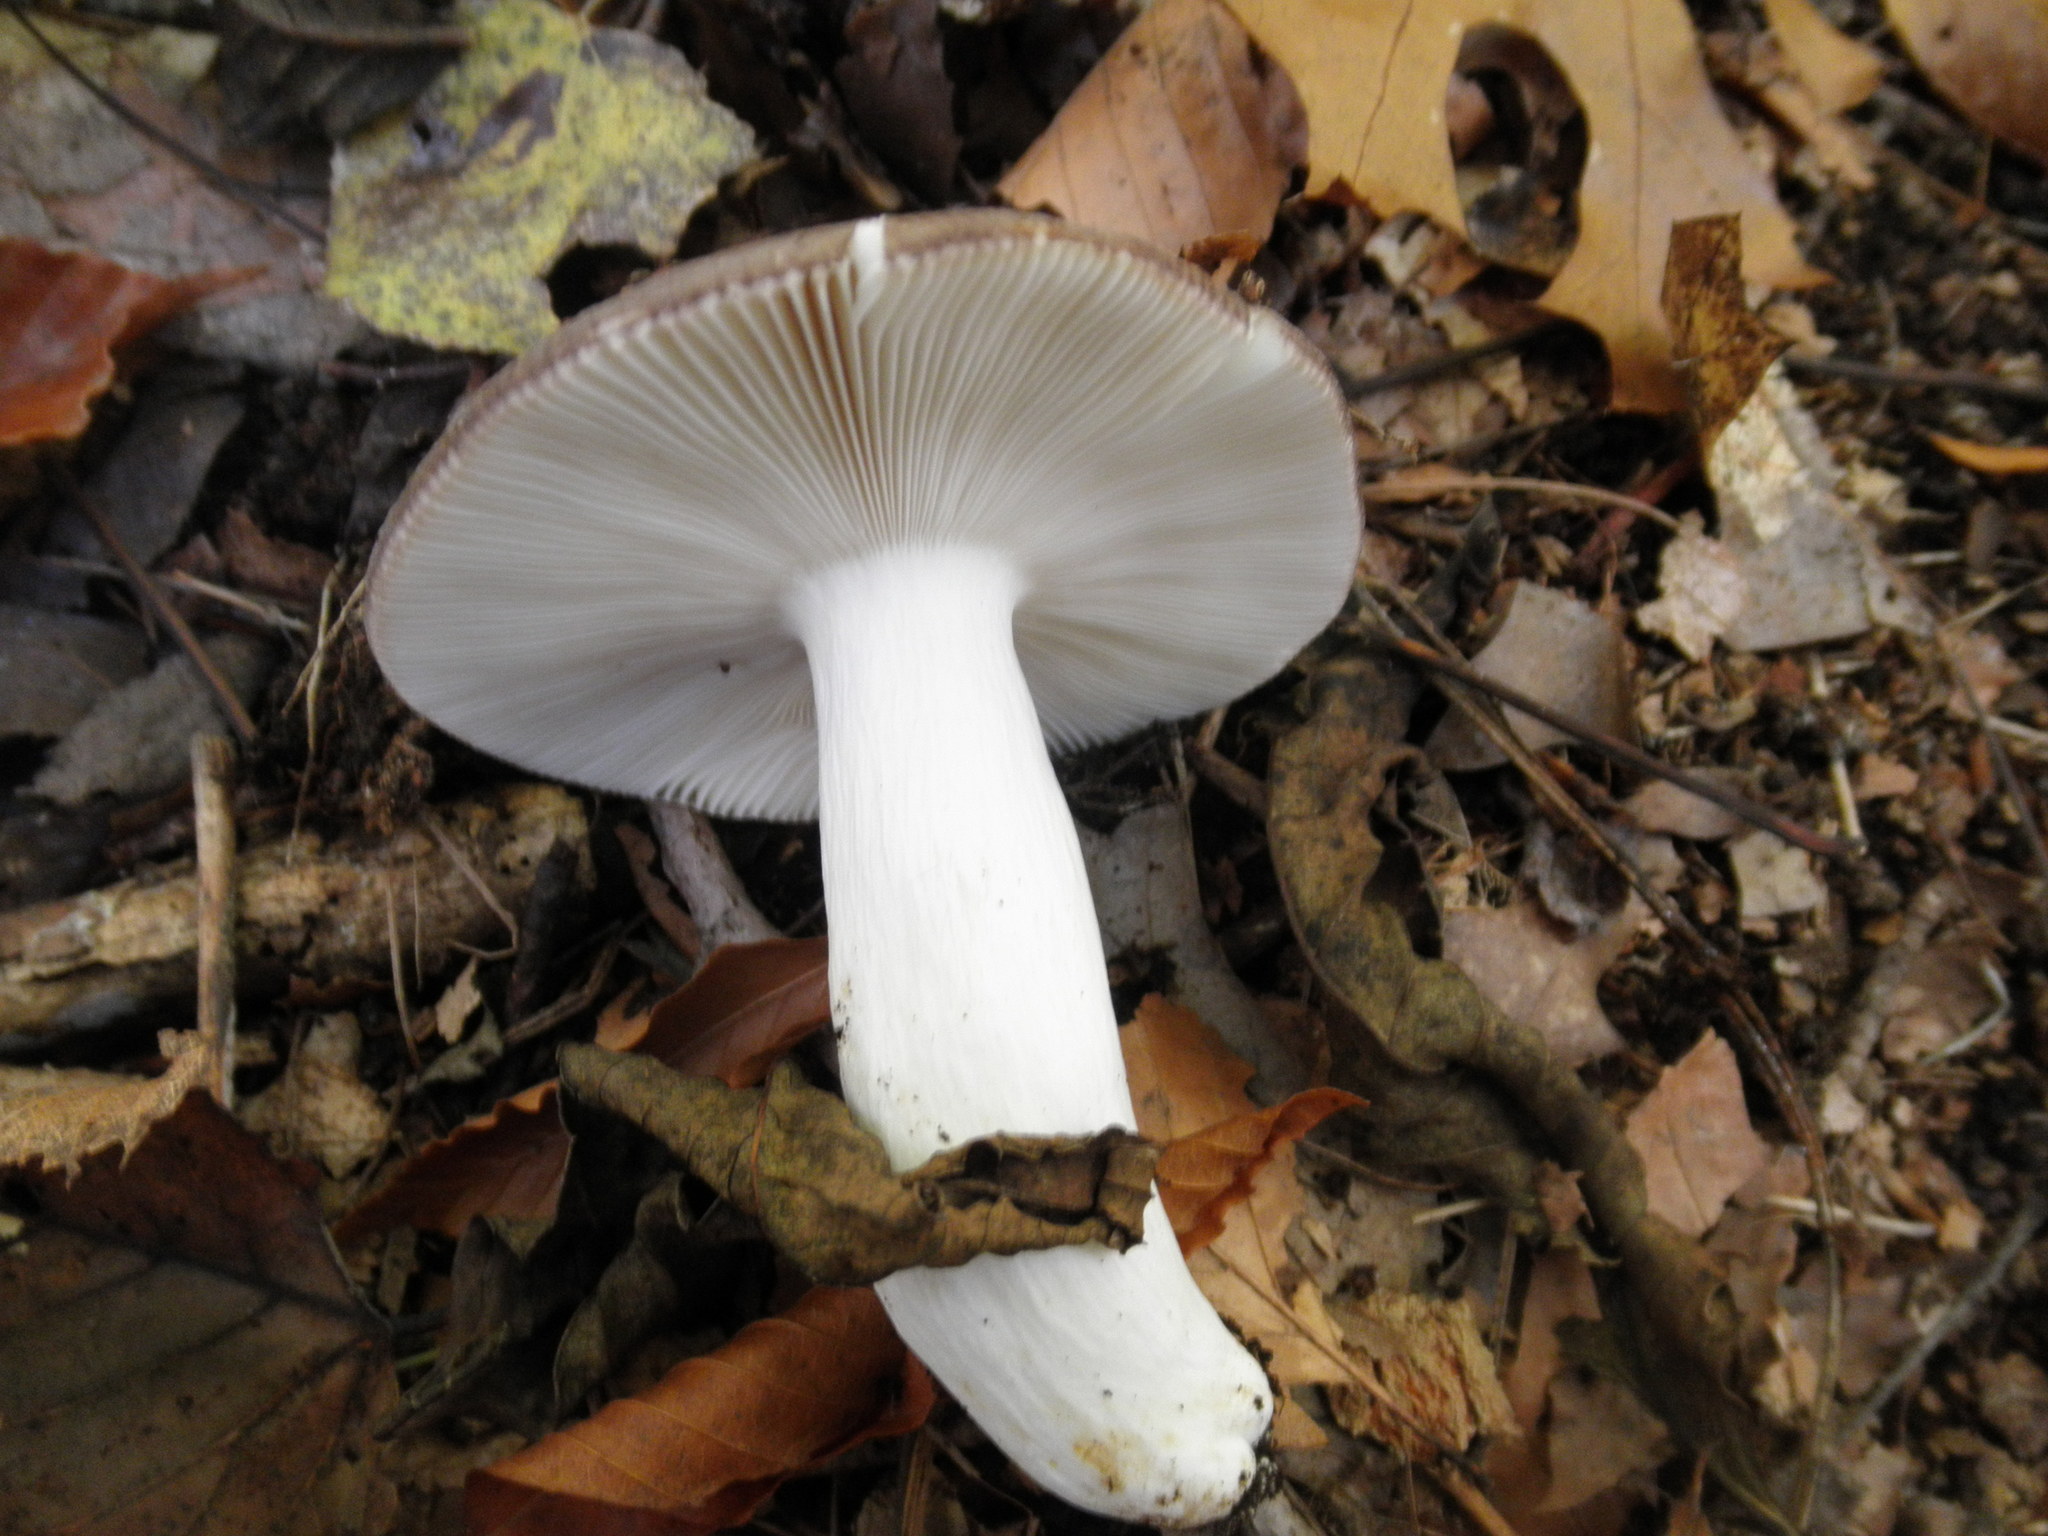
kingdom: Fungi
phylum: Basidiomycota
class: Agaricomycetes
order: Russulales
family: Russulaceae
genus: Russula
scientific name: Russula
